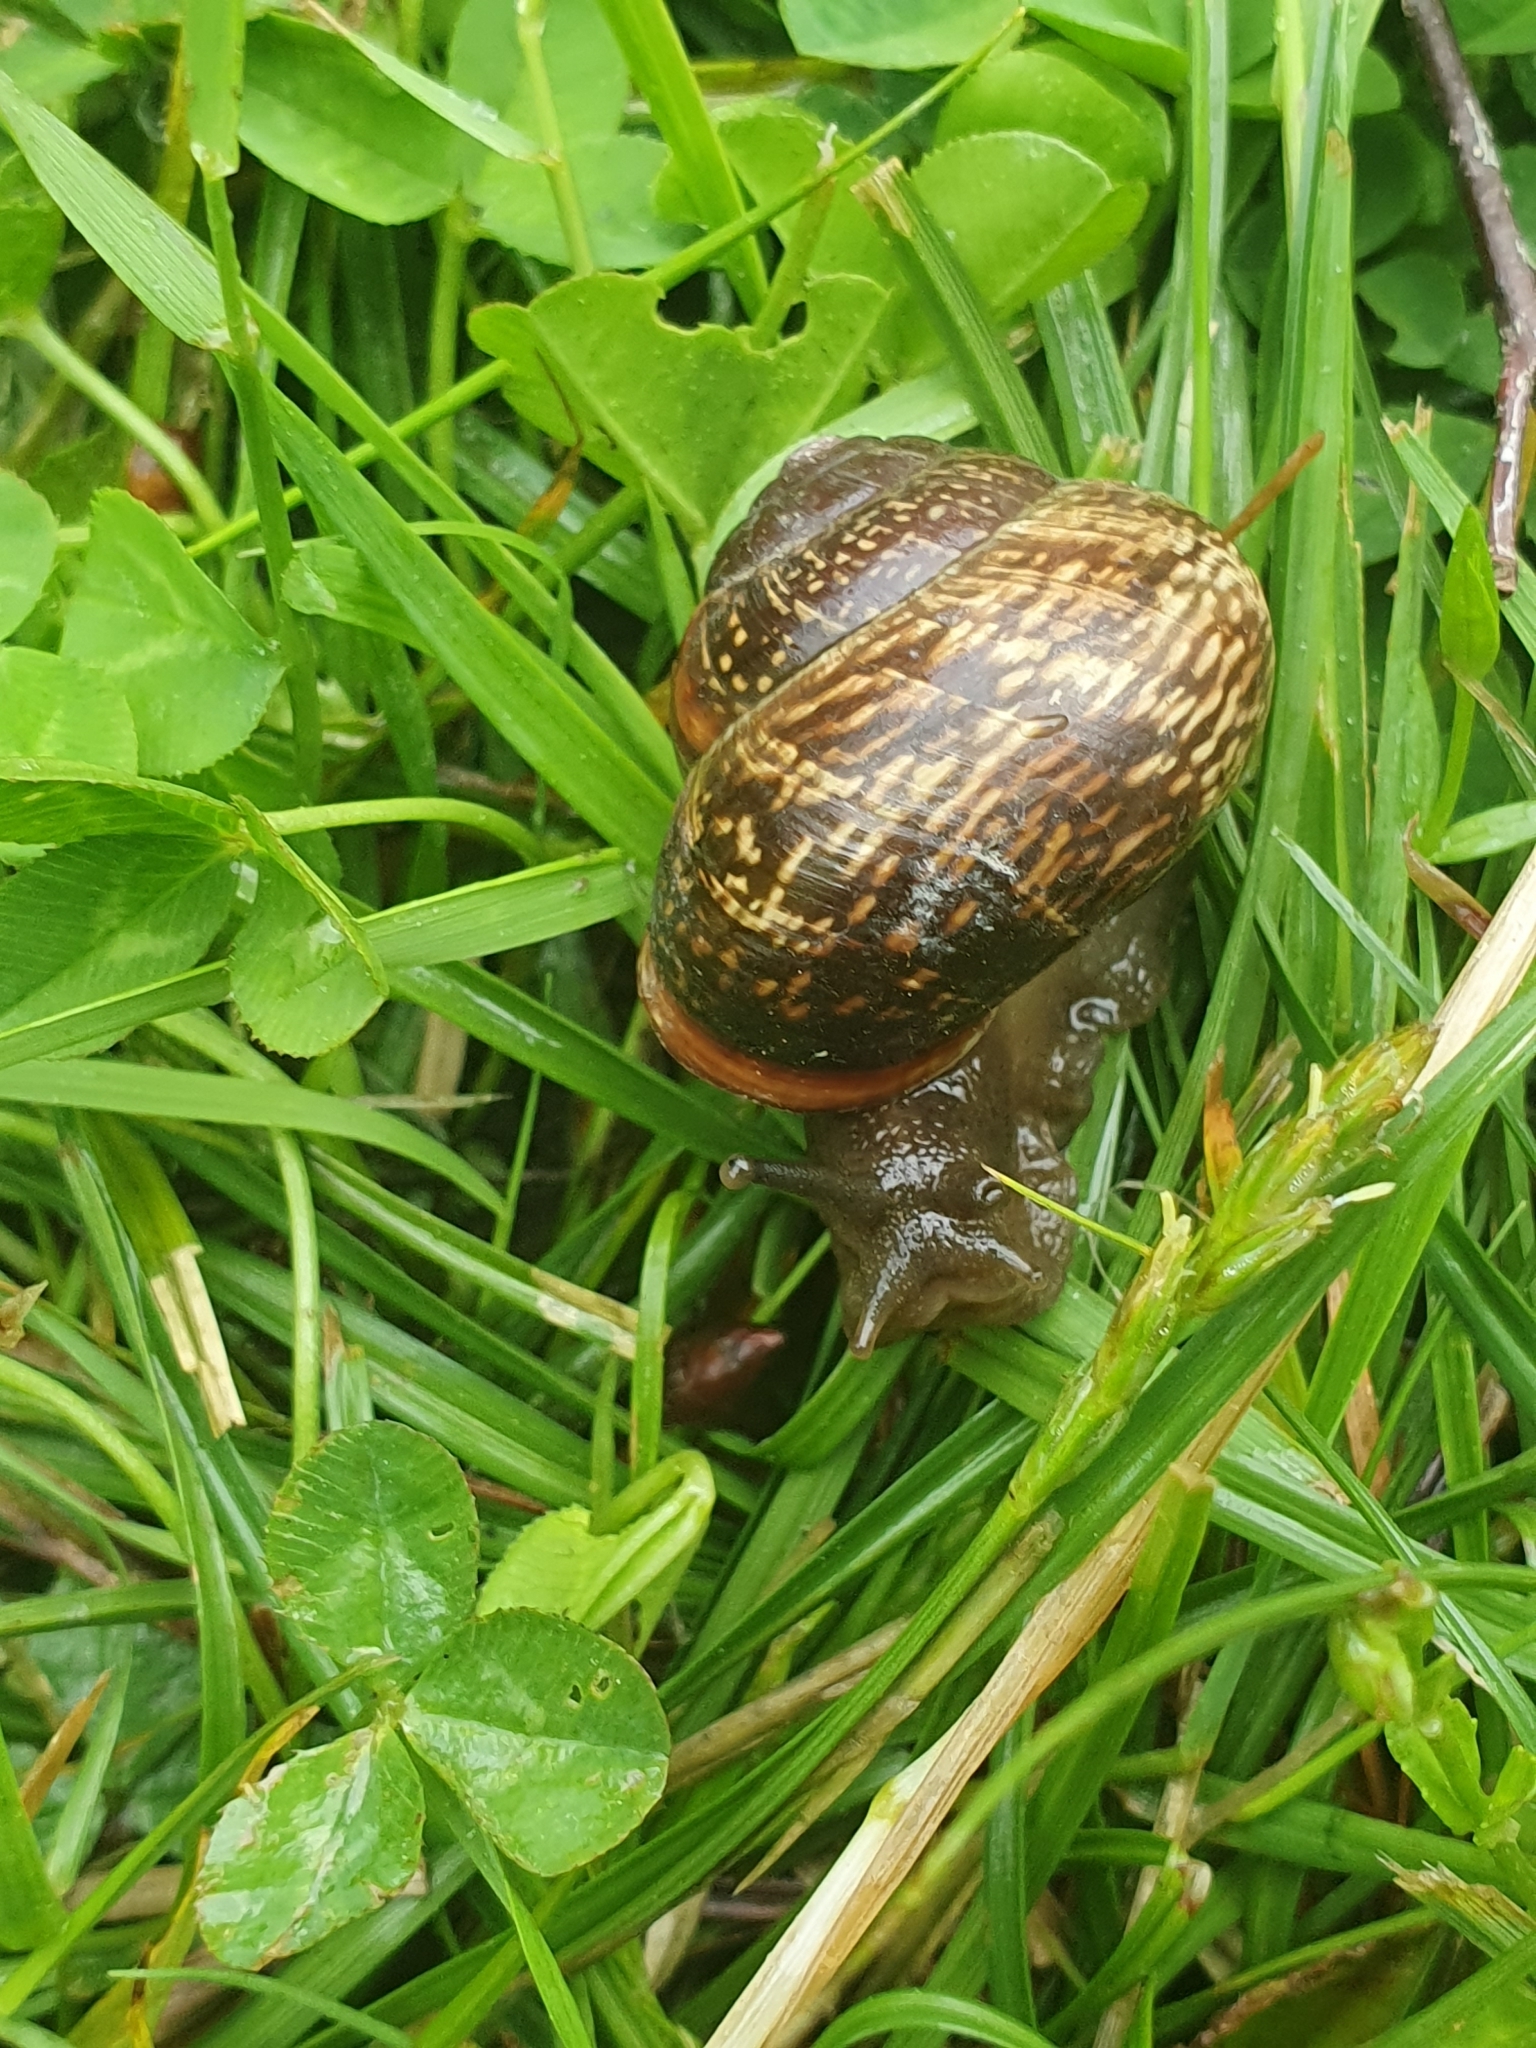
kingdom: Animalia
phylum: Mollusca
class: Gastropoda
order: Stylommatophora
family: Helicidae
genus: Arianta
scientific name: Arianta arbustorum
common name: Copse snail
